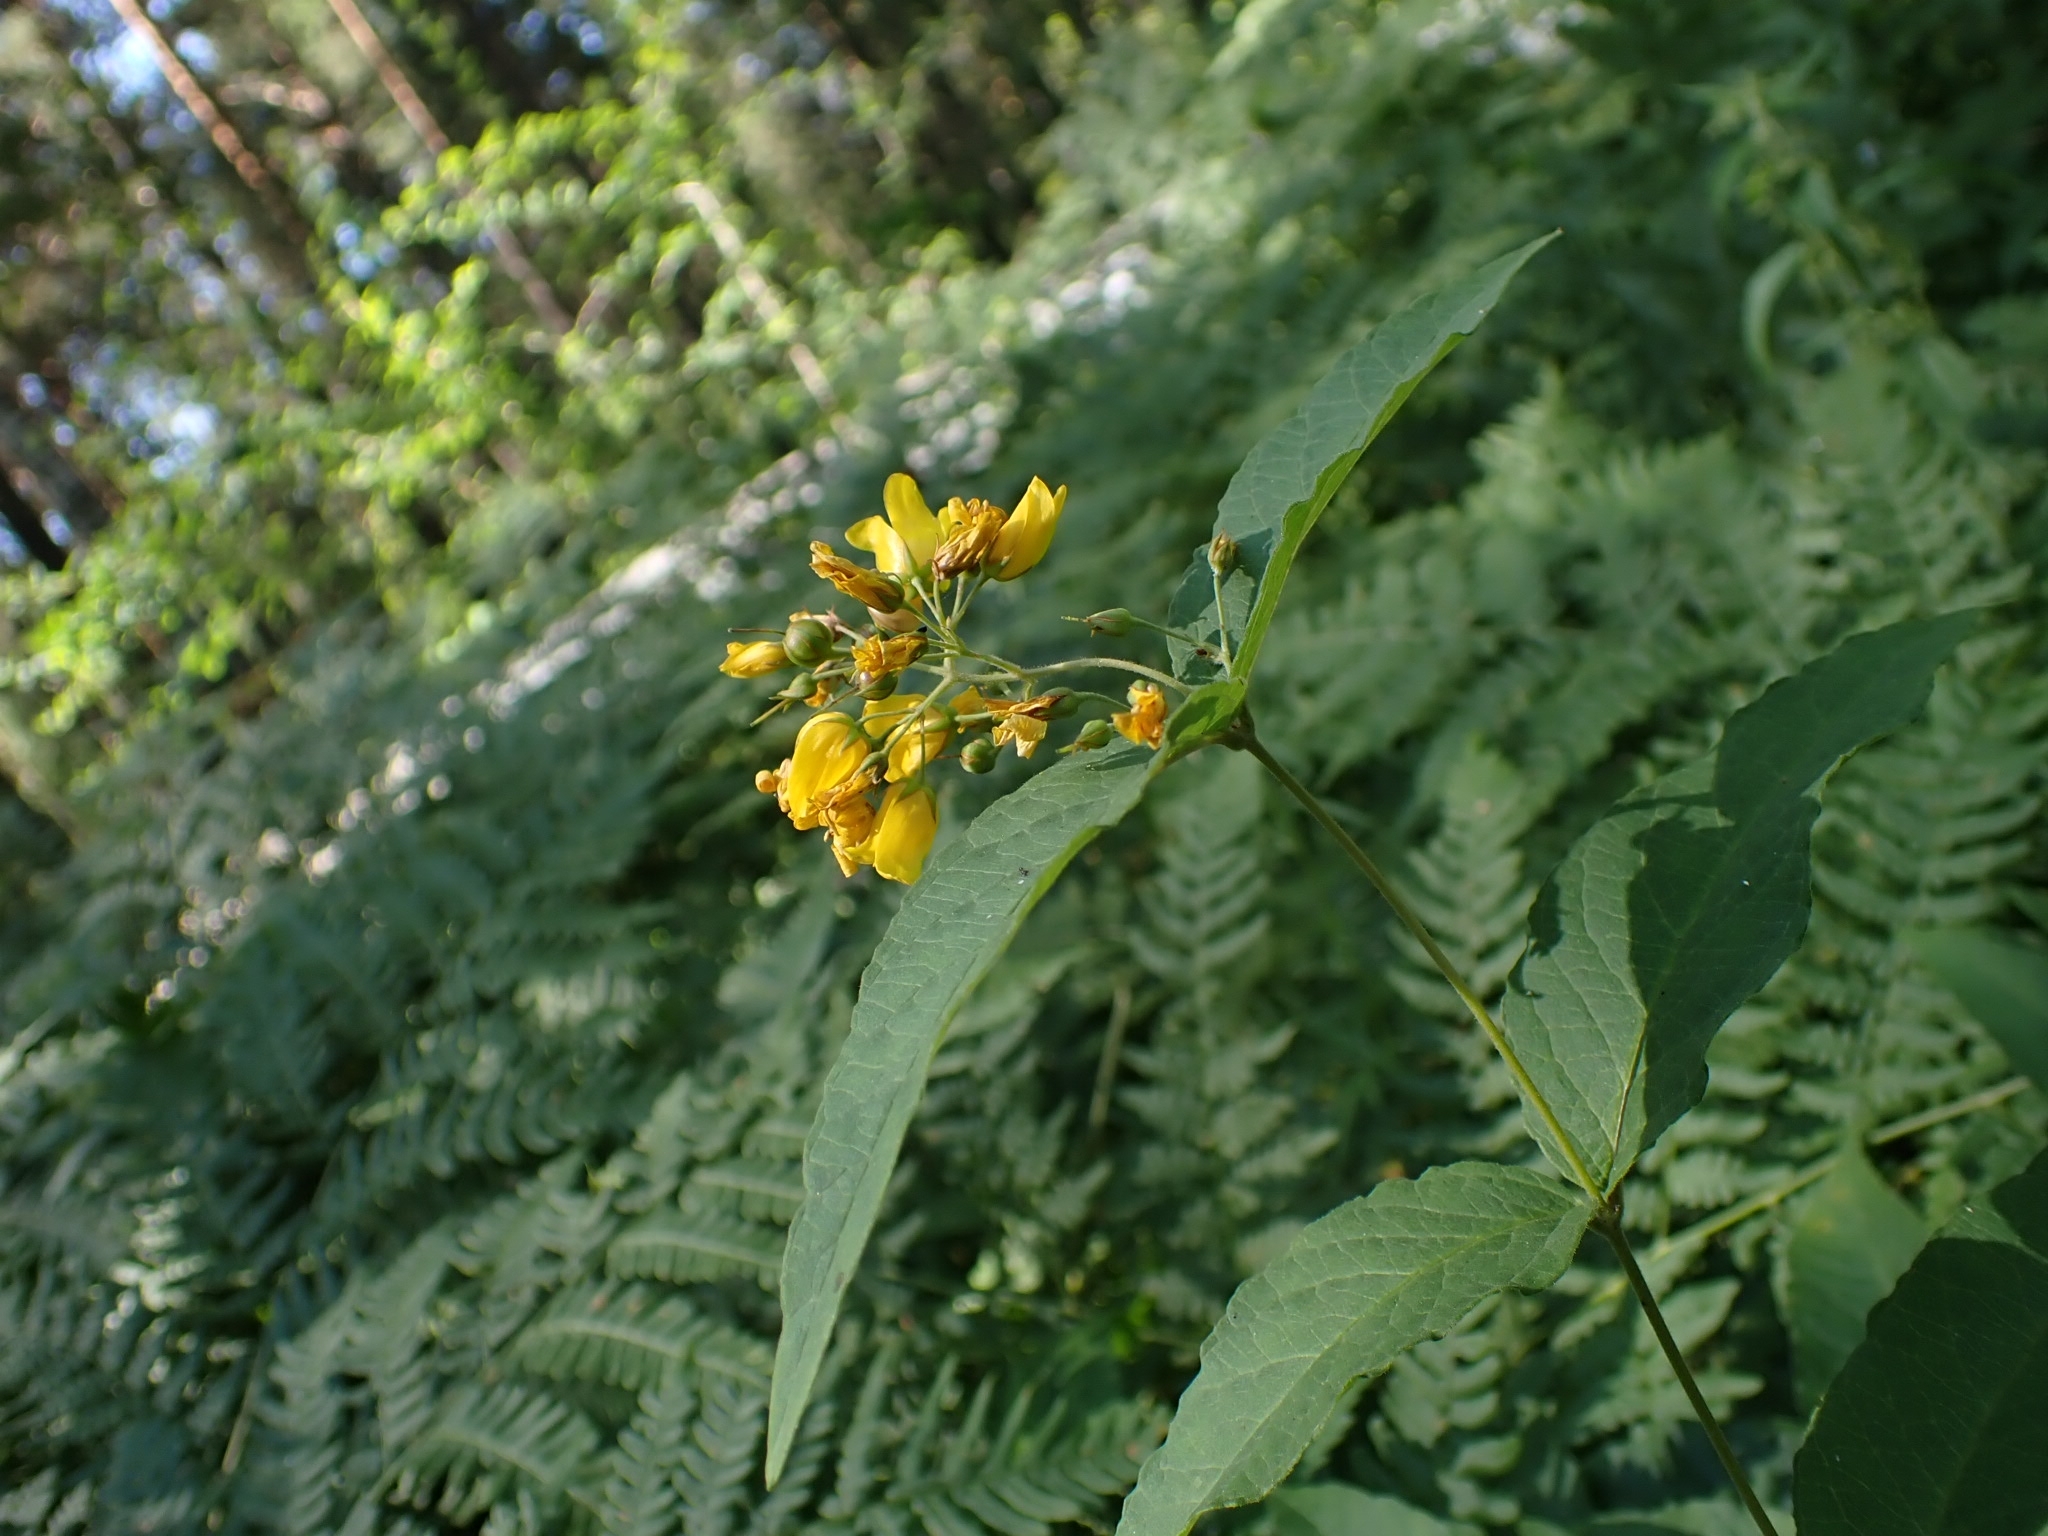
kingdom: Plantae
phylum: Tracheophyta
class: Magnoliopsida
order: Ericales
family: Primulaceae
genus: Lysimachia
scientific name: Lysimachia vulgaris
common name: Yellow loosestrife
